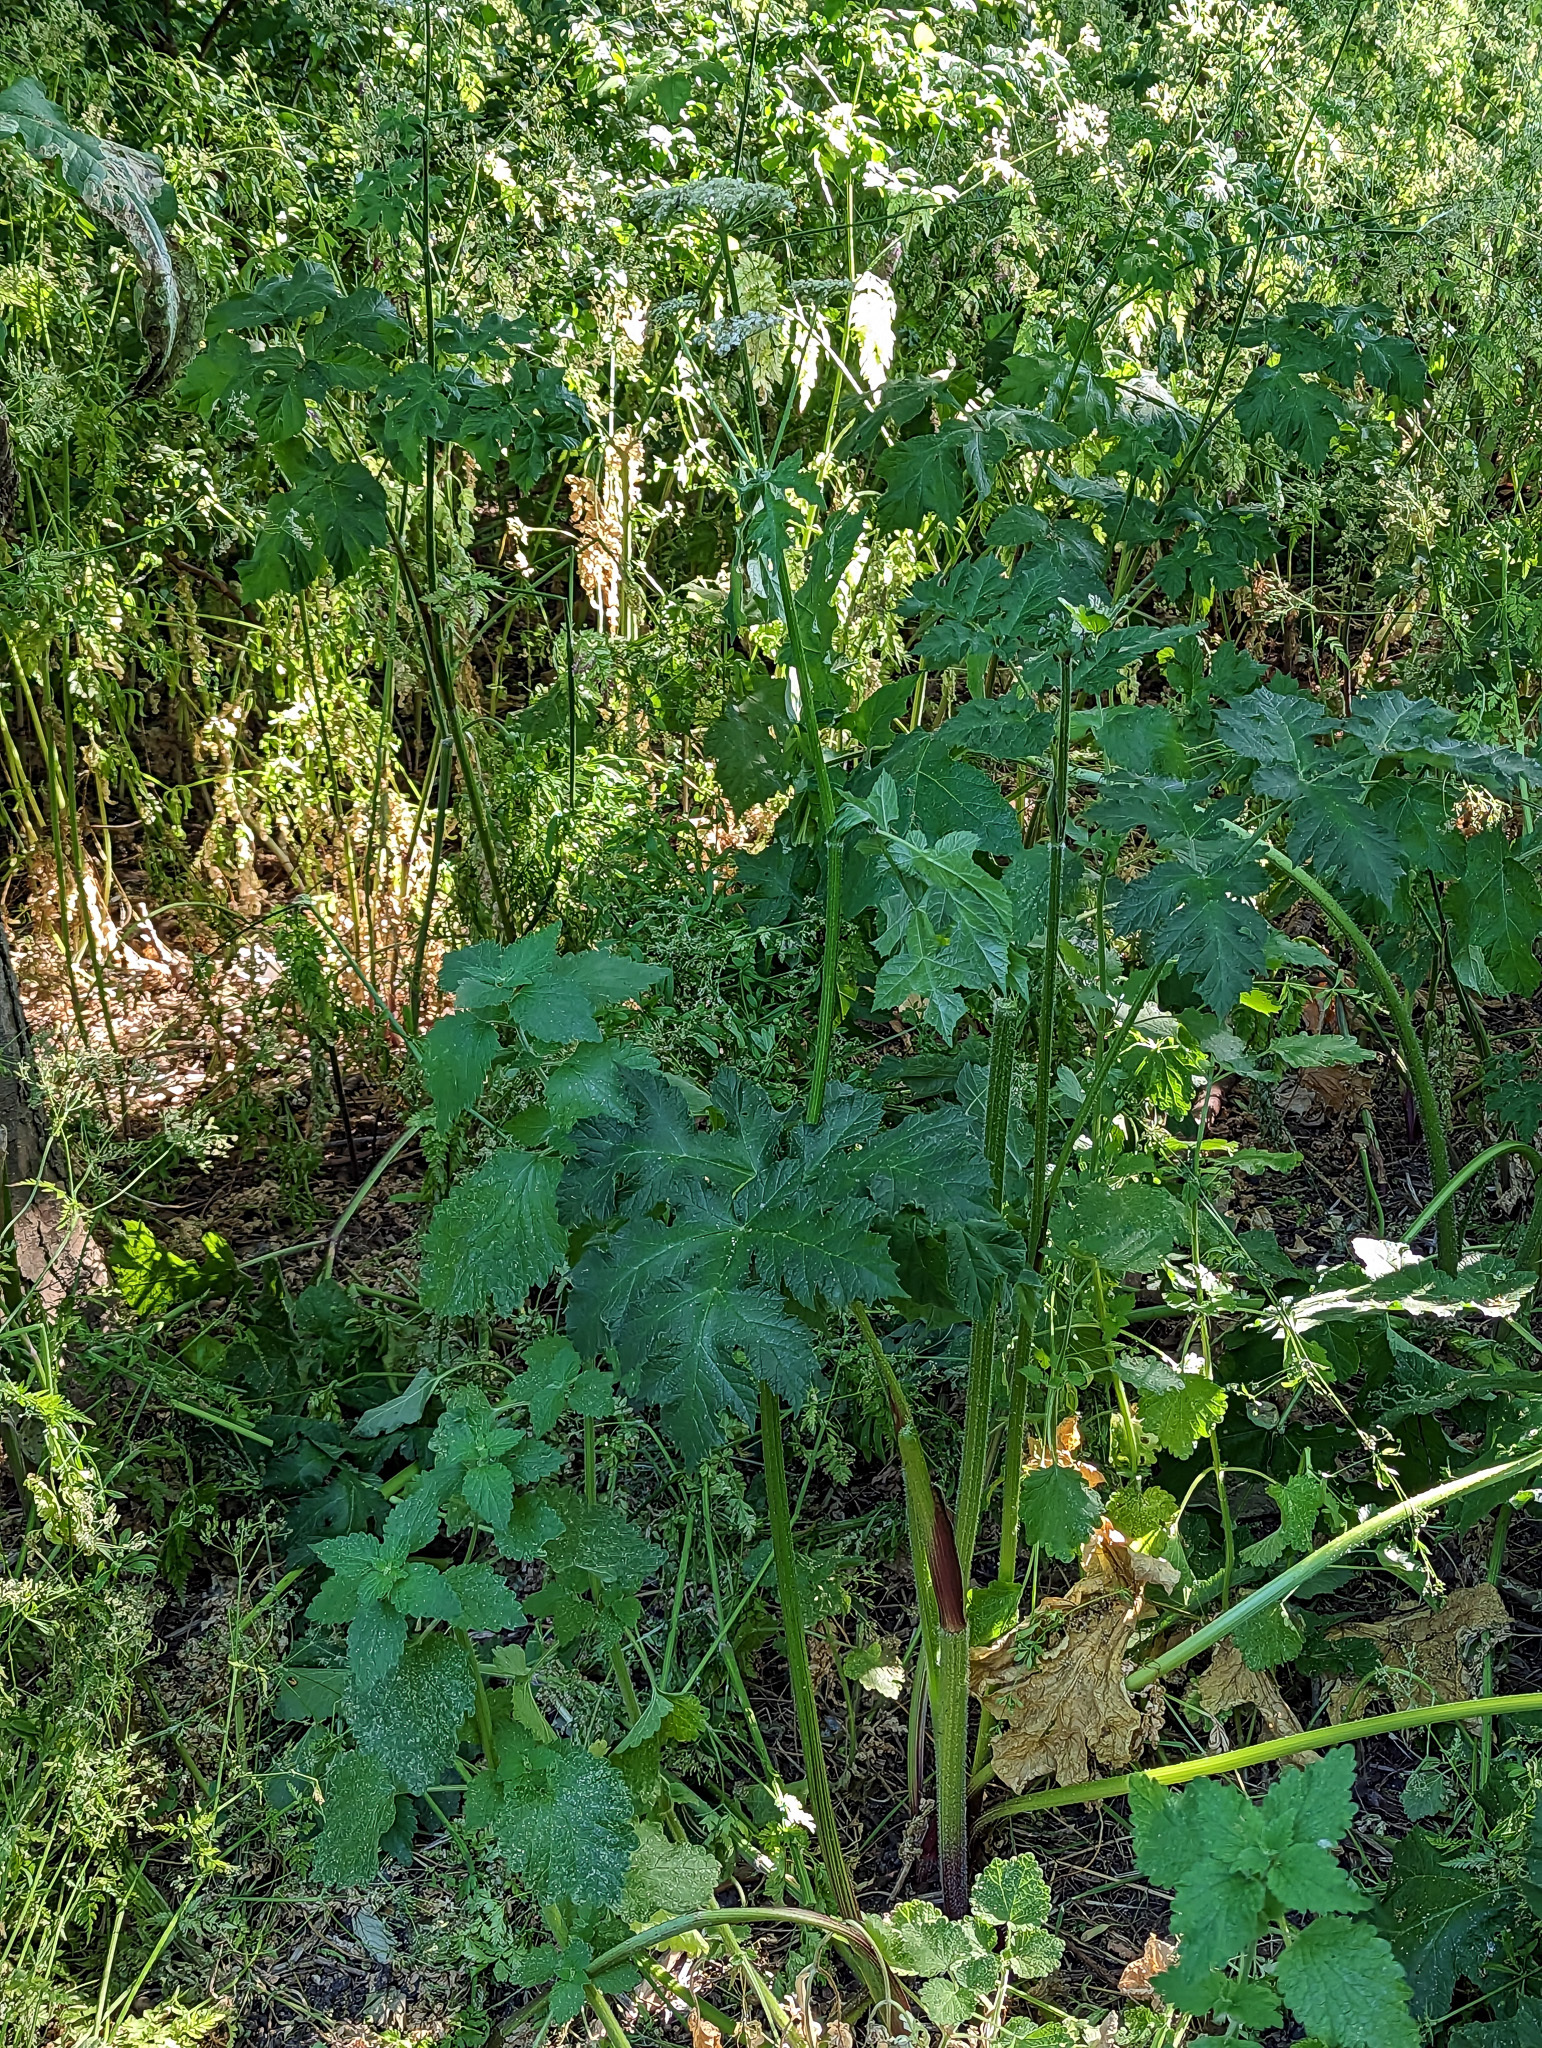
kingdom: Plantae
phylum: Tracheophyta
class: Magnoliopsida
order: Apiales
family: Apiaceae
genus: Heracleum
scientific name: Heracleum sphondylium
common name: Hogweed
